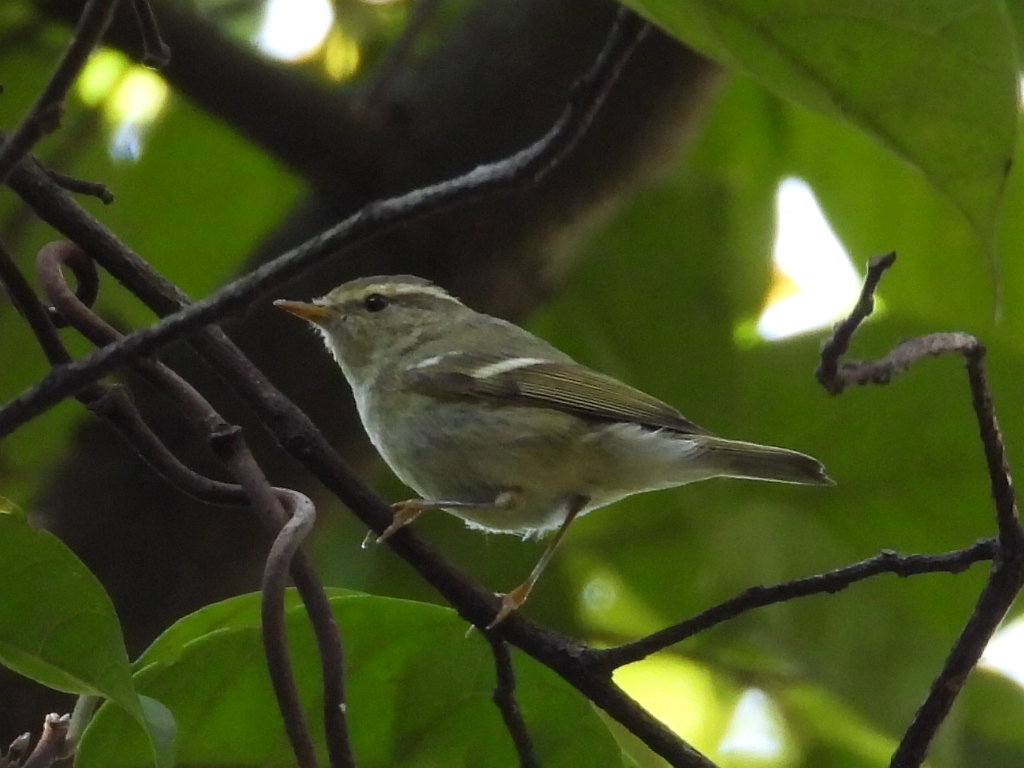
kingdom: Animalia
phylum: Chordata
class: Aves
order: Passeriformes
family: Phylloscopidae
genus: Phylloscopus
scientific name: Phylloscopus inornatus
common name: Yellow-browed warbler
